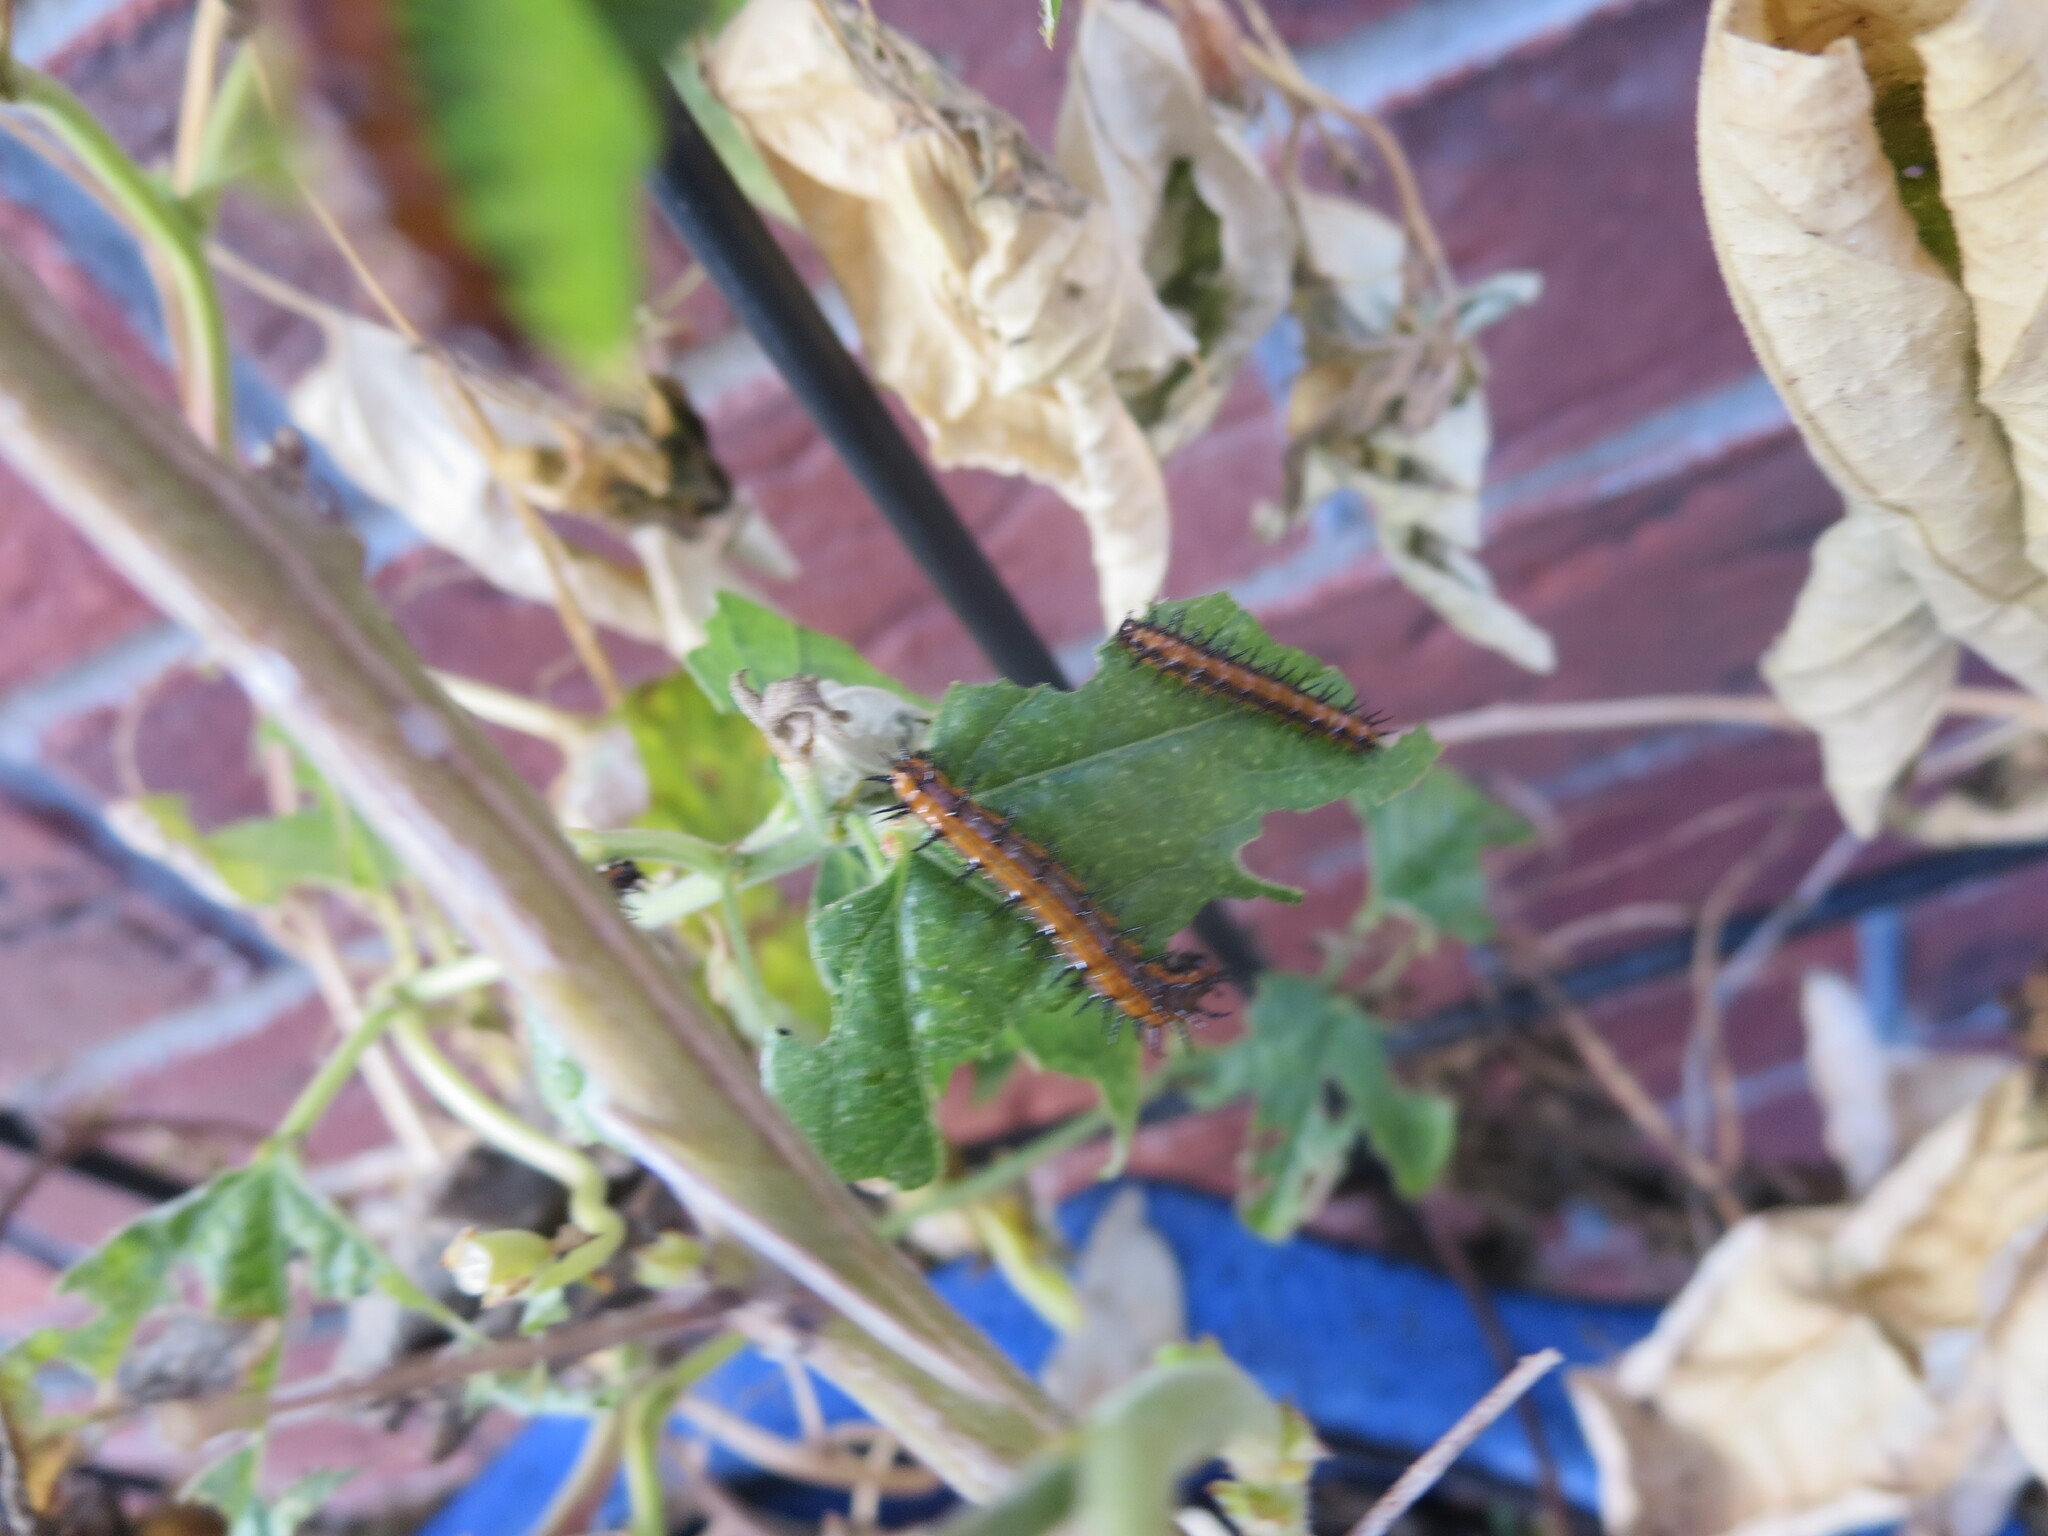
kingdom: Animalia
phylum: Arthropoda
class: Insecta
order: Lepidoptera
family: Nymphalidae
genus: Dione
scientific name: Dione vanillae
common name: Gulf fritillary
